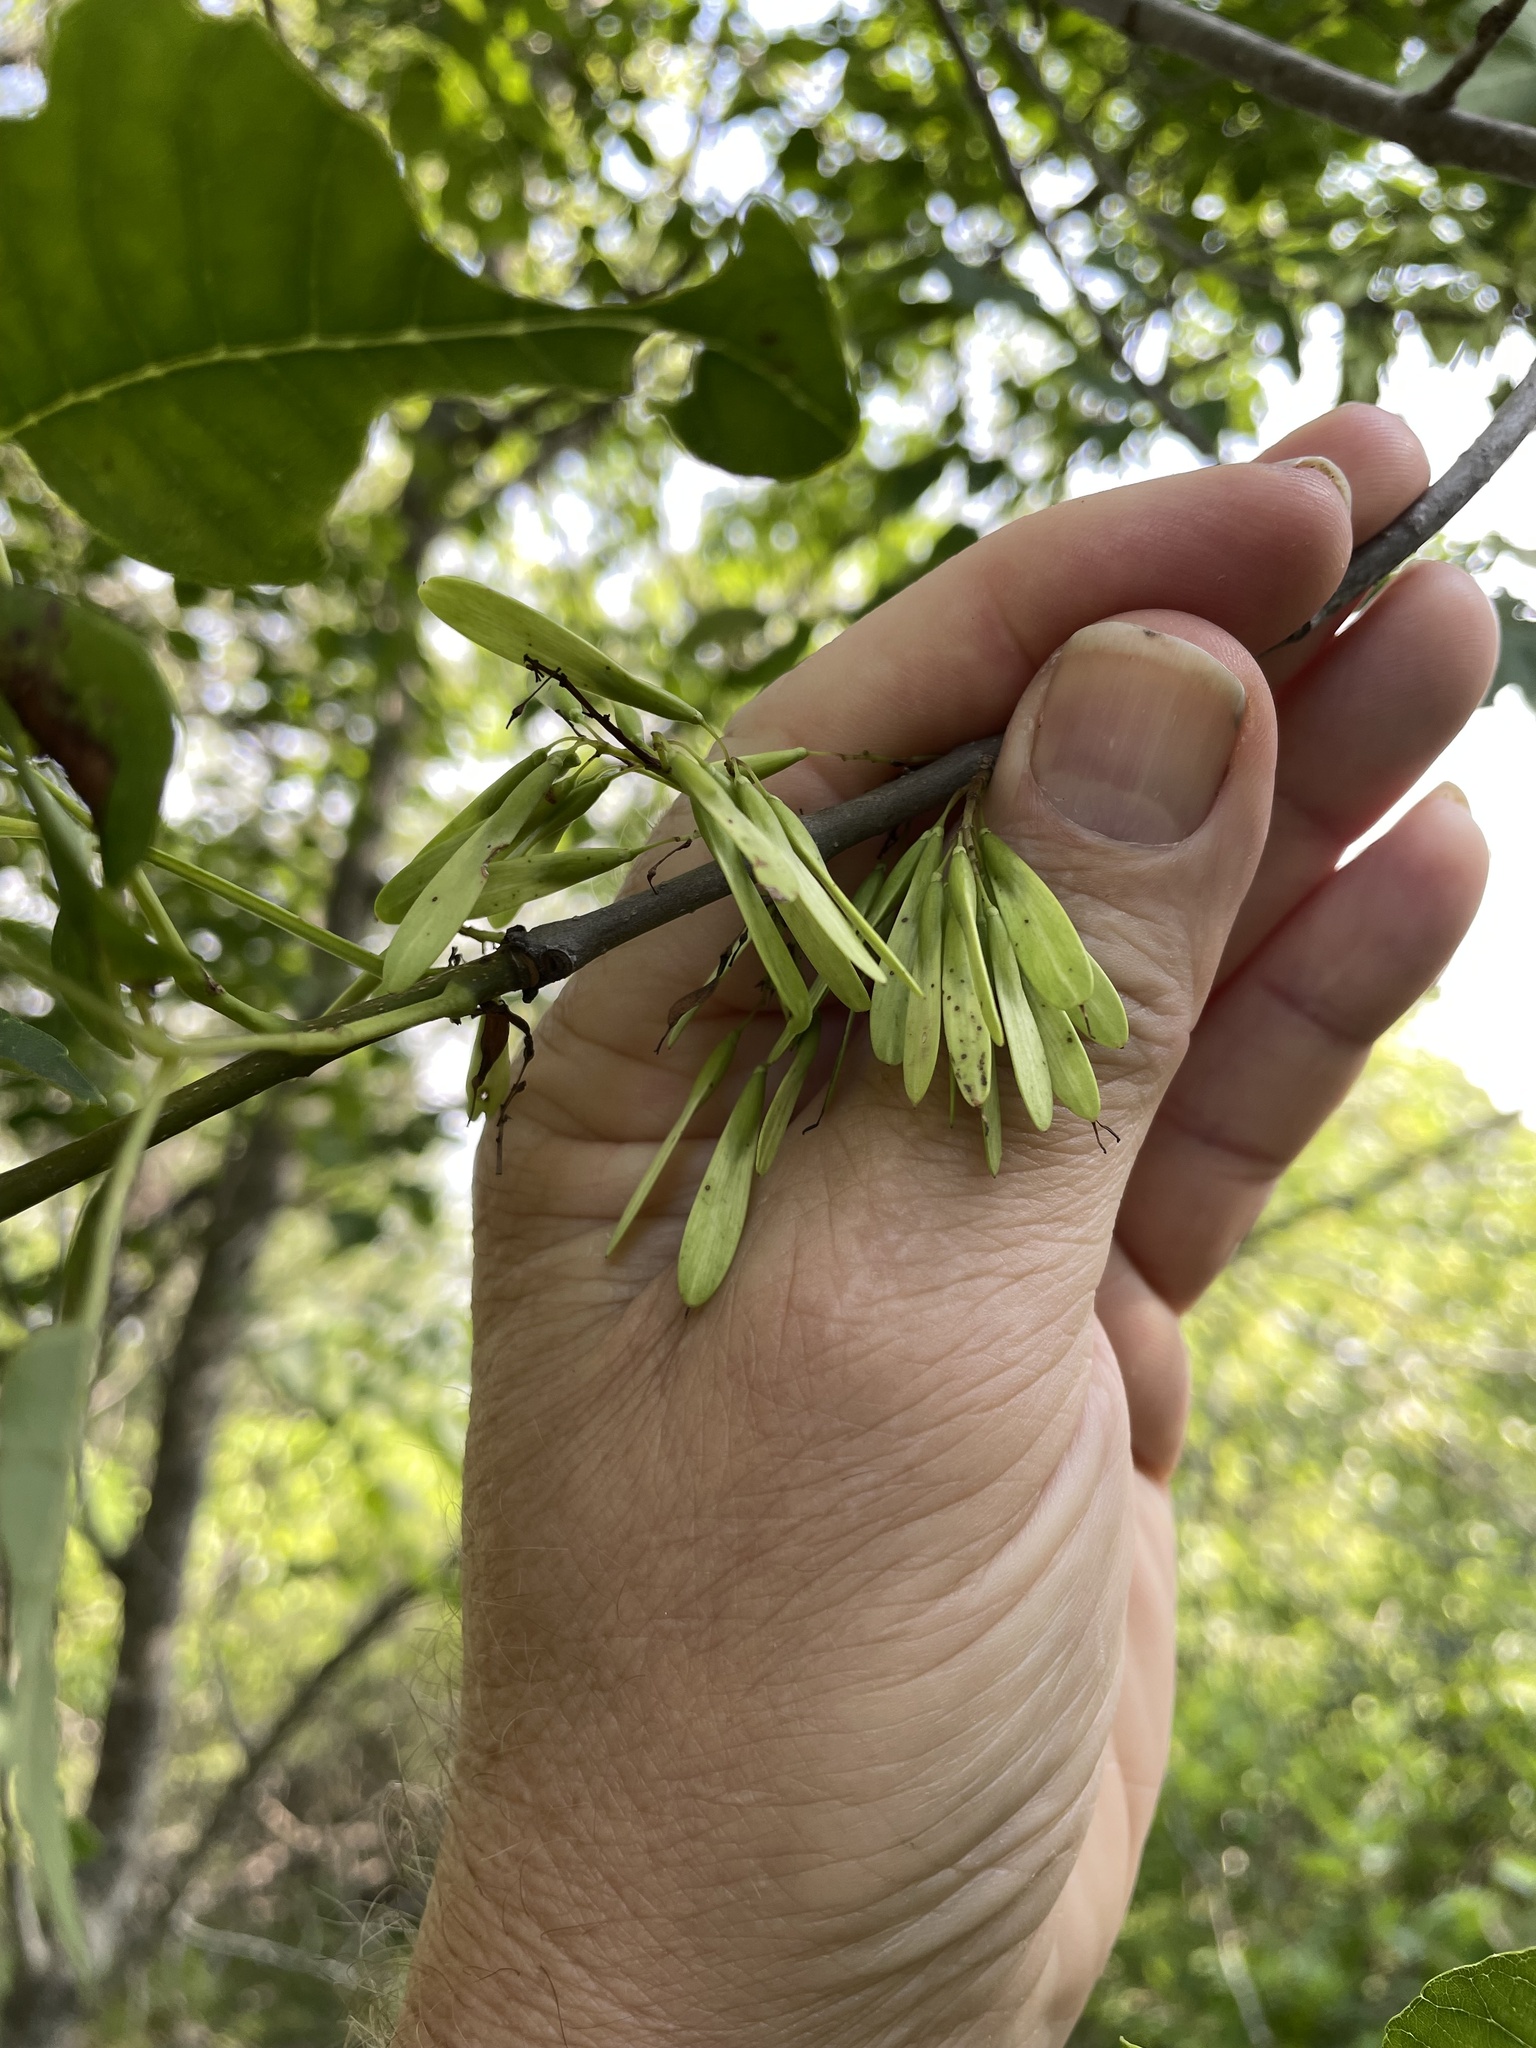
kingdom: Plantae
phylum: Tracheophyta
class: Magnoliopsida
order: Lamiales
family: Oleaceae
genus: Fraxinus
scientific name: Fraxinus albicans
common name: Texas ash
